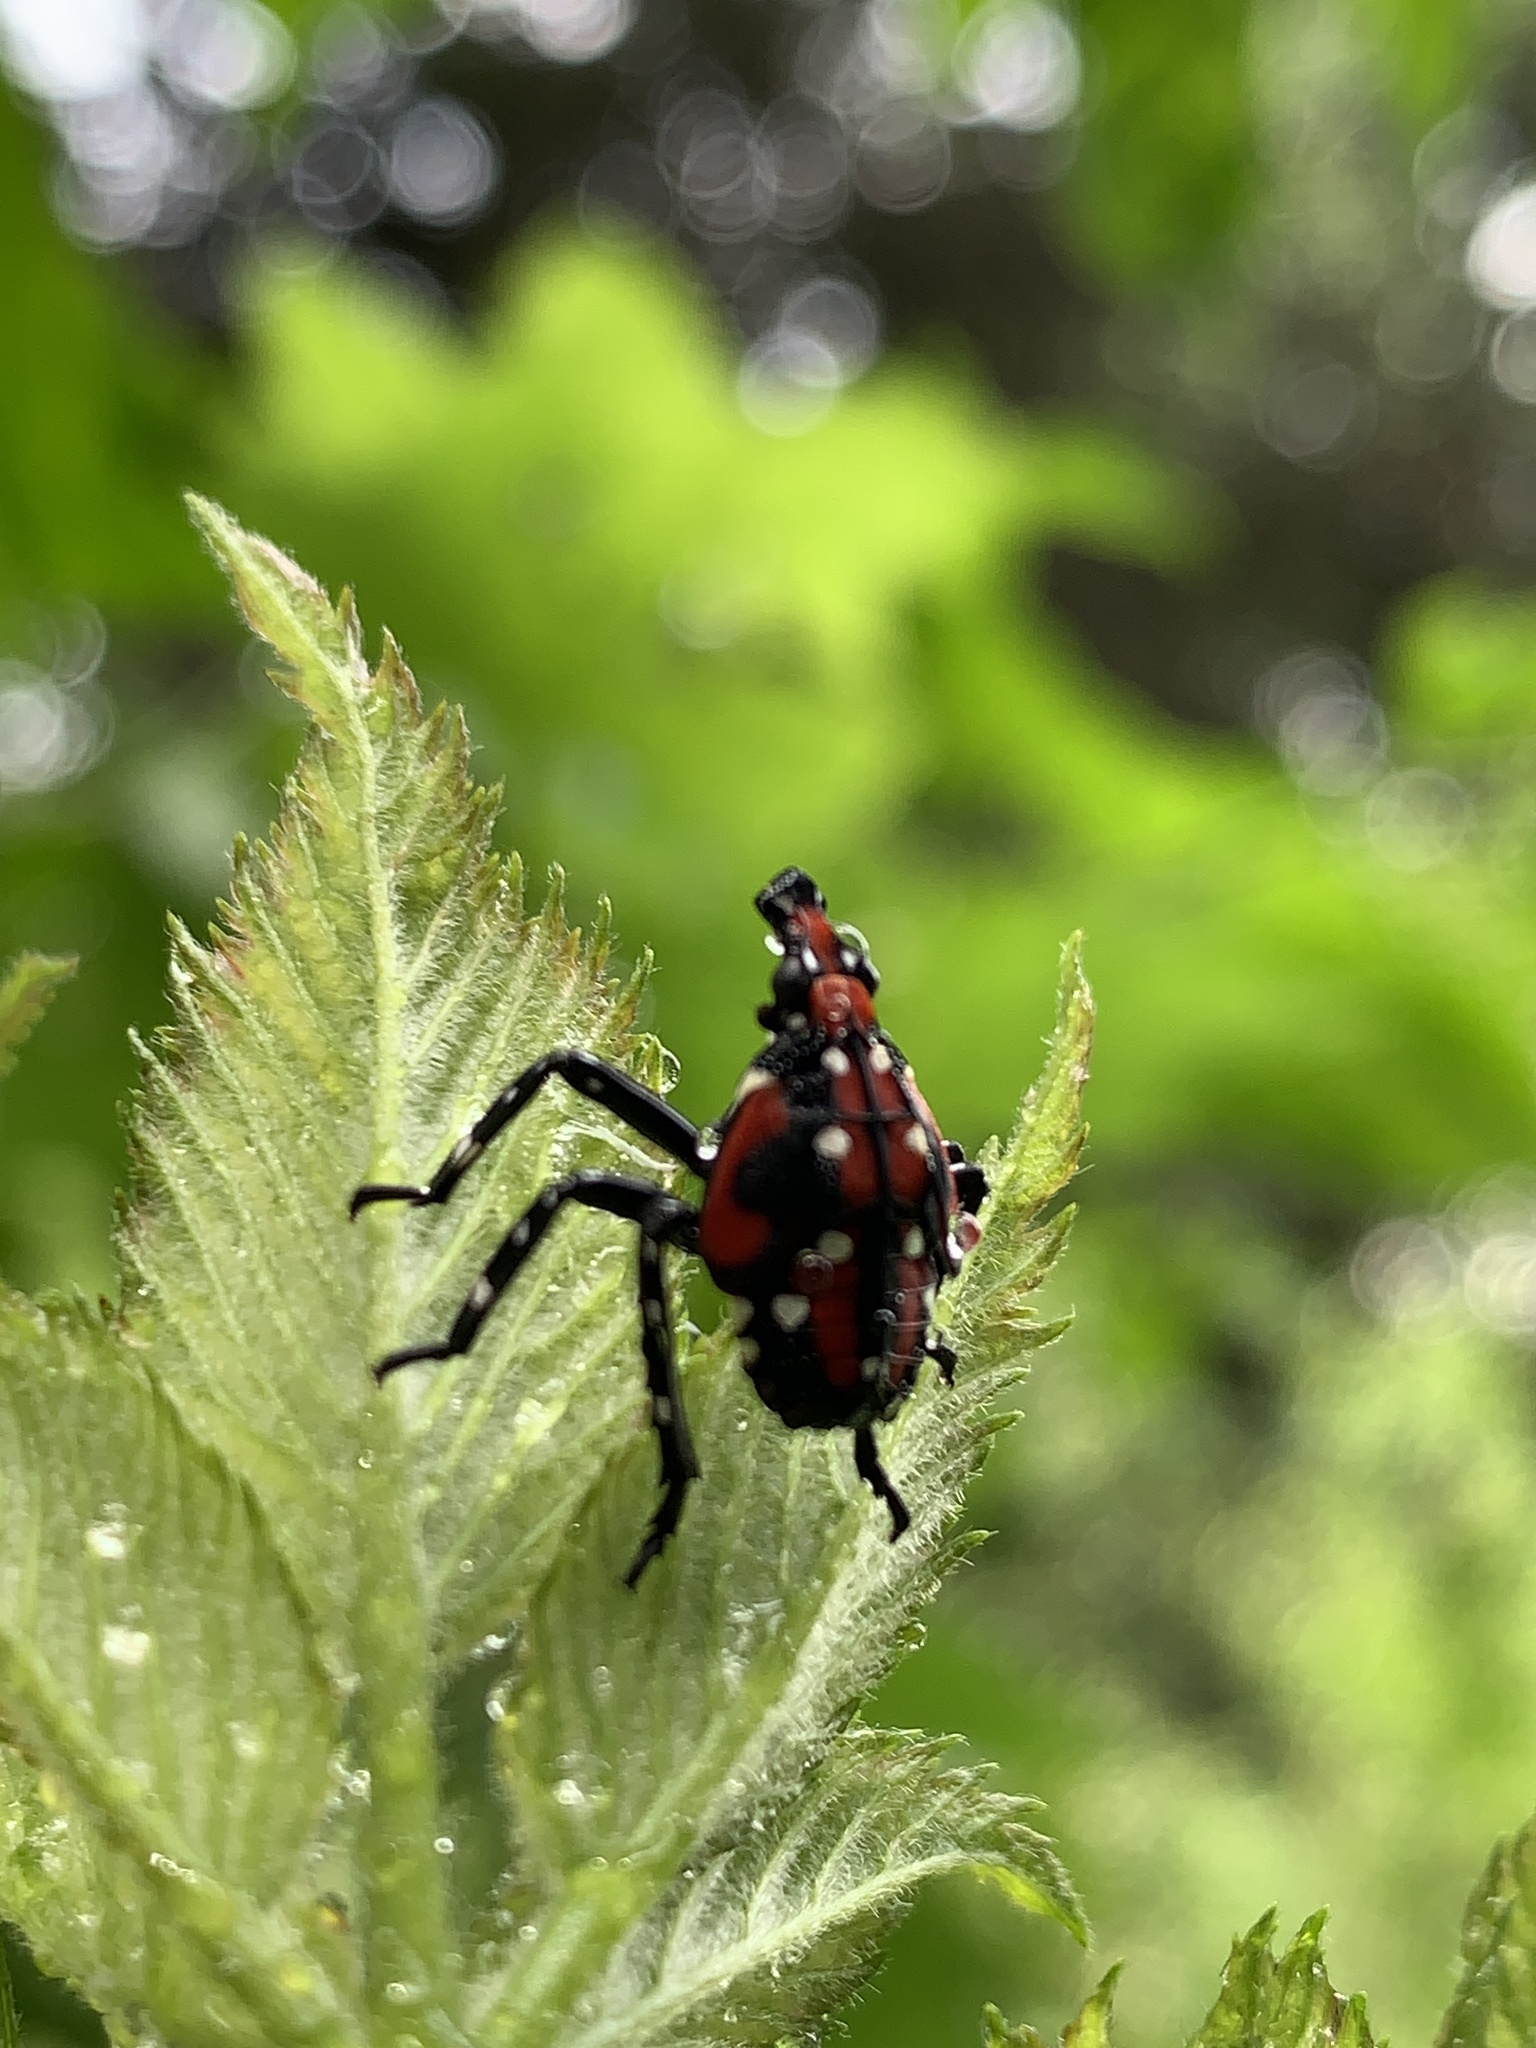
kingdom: Animalia
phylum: Arthropoda
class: Insecta
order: Hemiptera
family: Fulgoridae
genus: Lycorma
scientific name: Lycorma delicatula
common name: Spotted lanternfly
